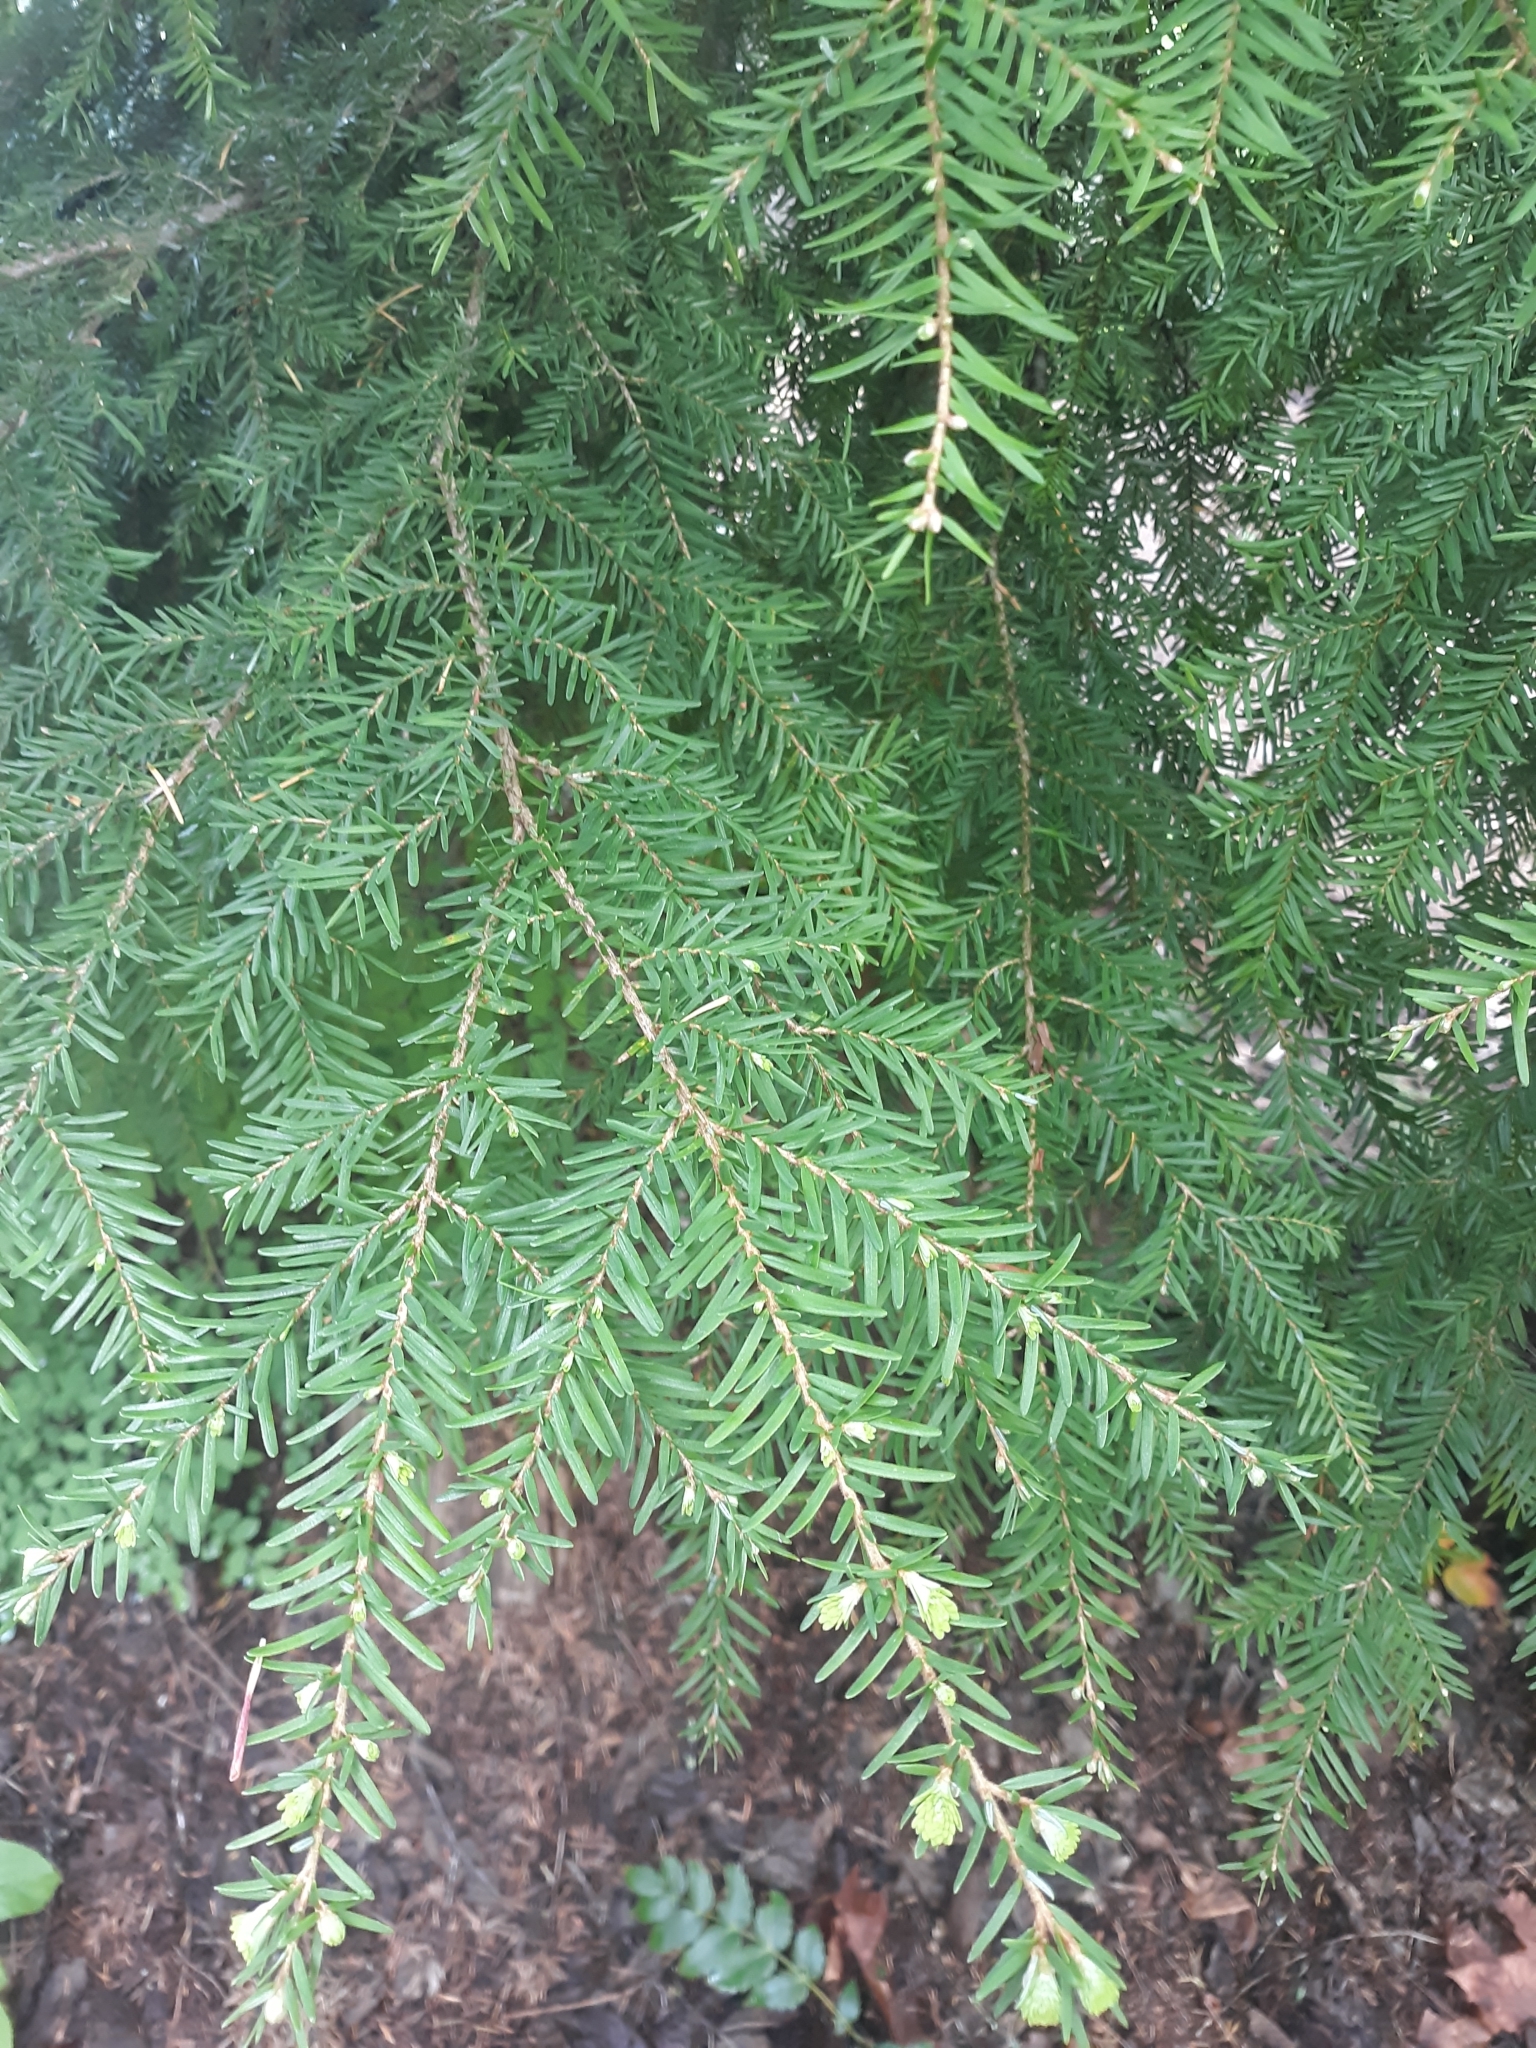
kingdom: Plantae
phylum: Tracheophyta
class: Pinopsida
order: Pinales
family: Pinaceae
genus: Tsuga
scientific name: Tsuga heterophylla
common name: Western hemlock
